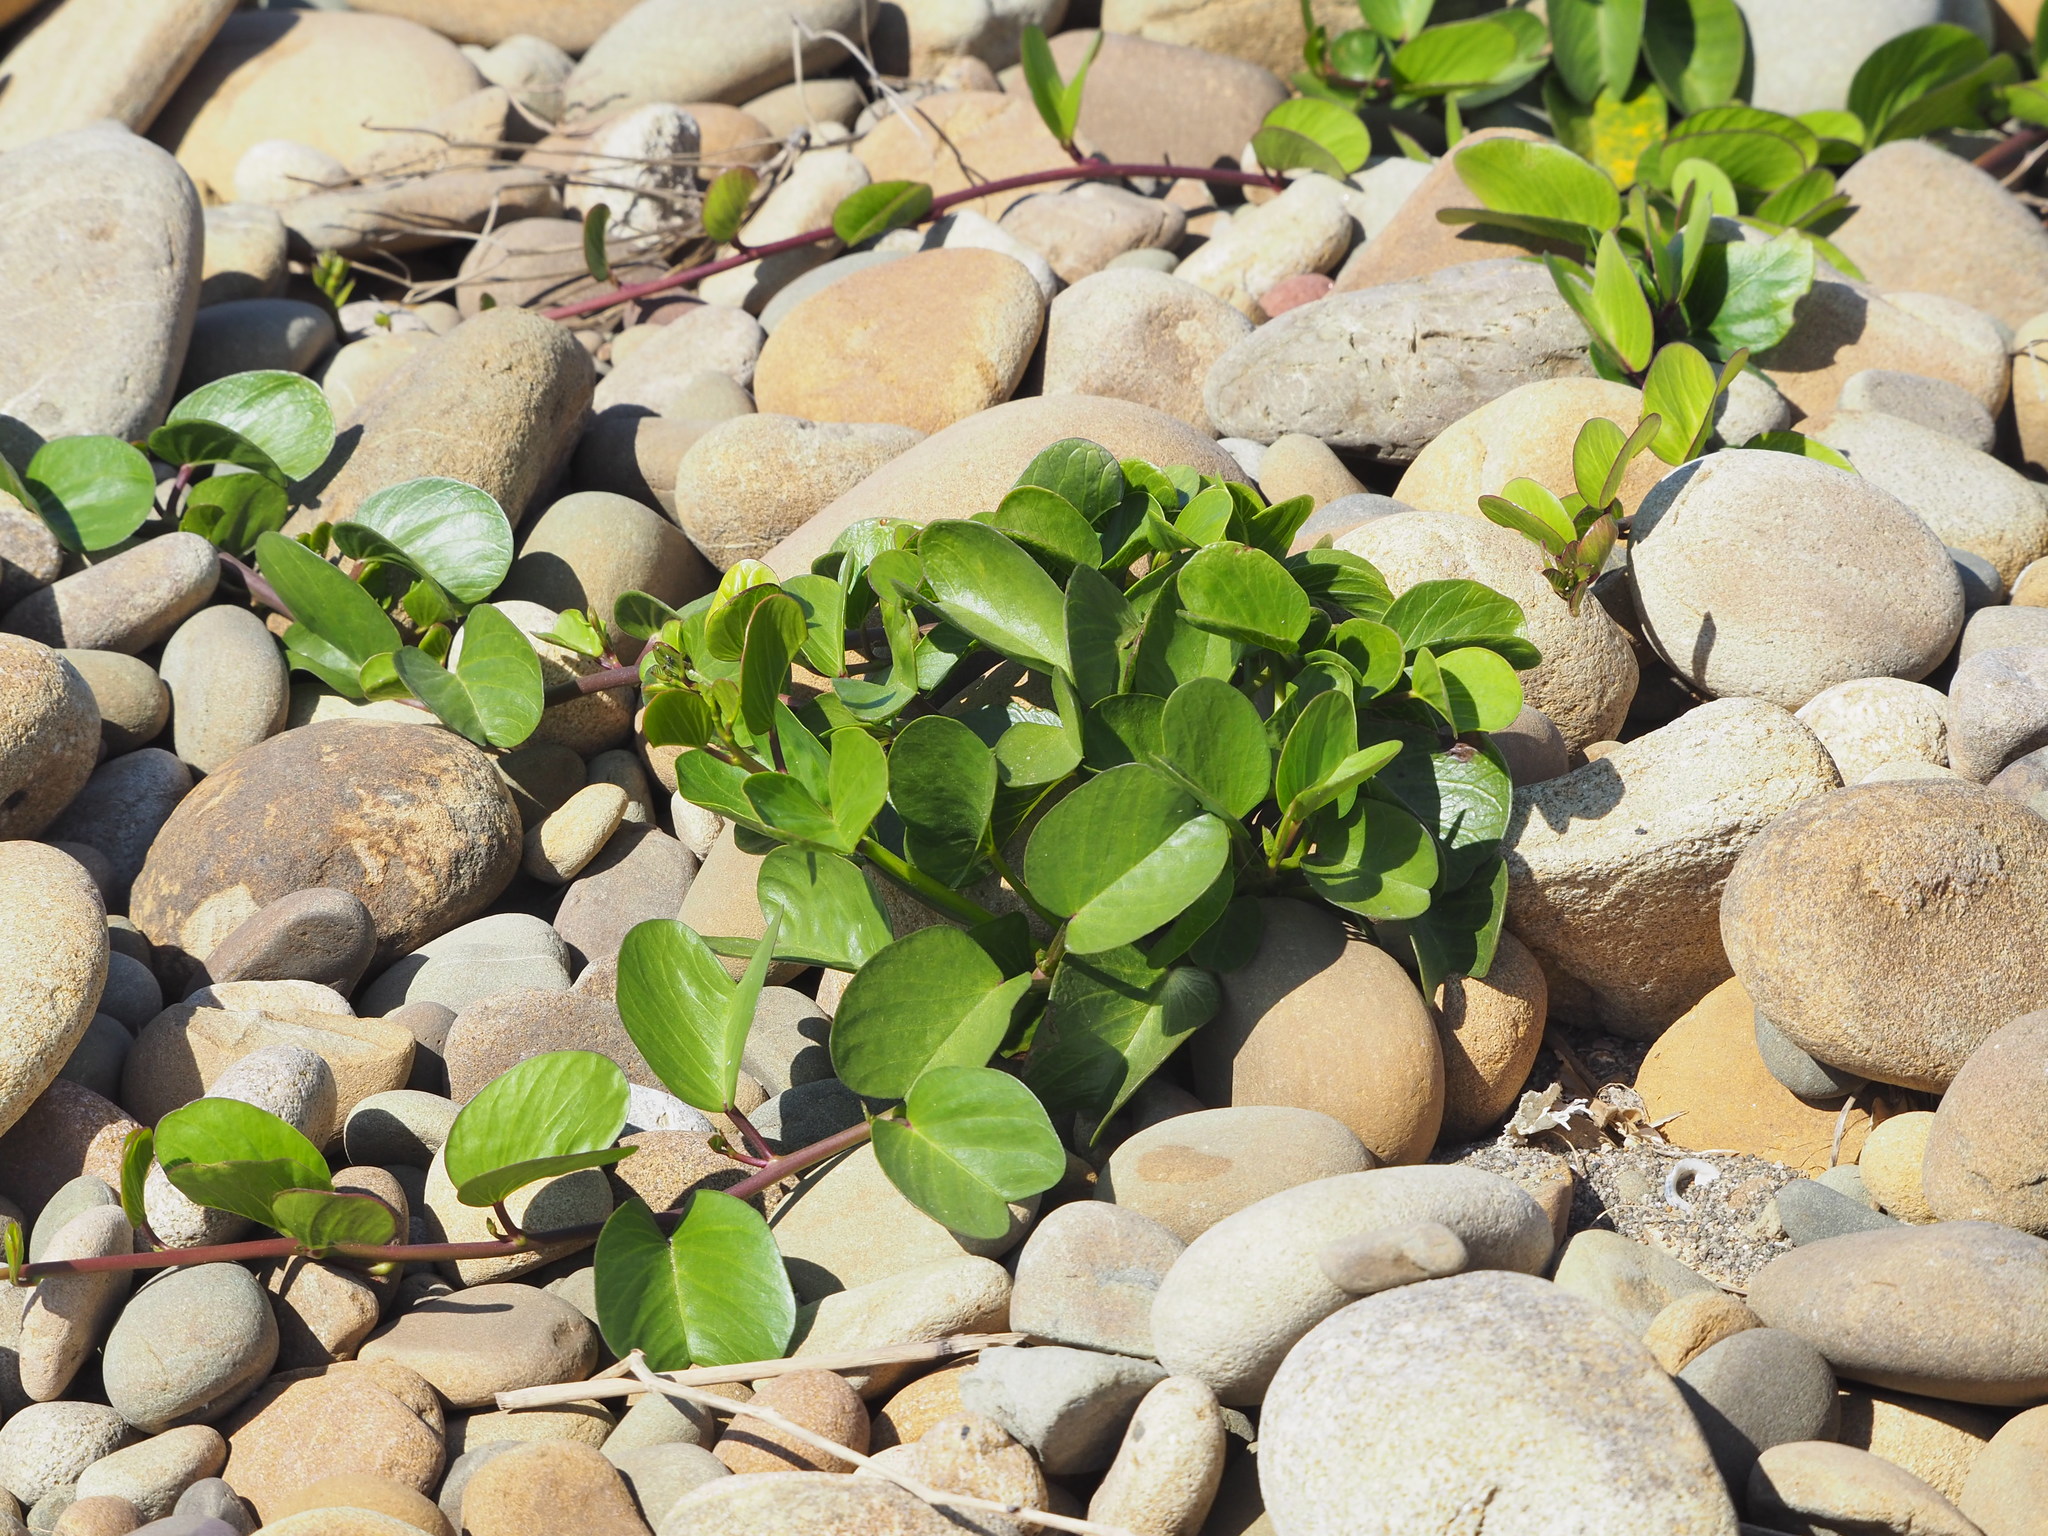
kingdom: Plantae
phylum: Tracheophyta
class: Magnoliopsida
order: Solanales
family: Convolvulaceae
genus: Ipomoea
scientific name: Ipomoea pes-caprae
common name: Beach morning glory
